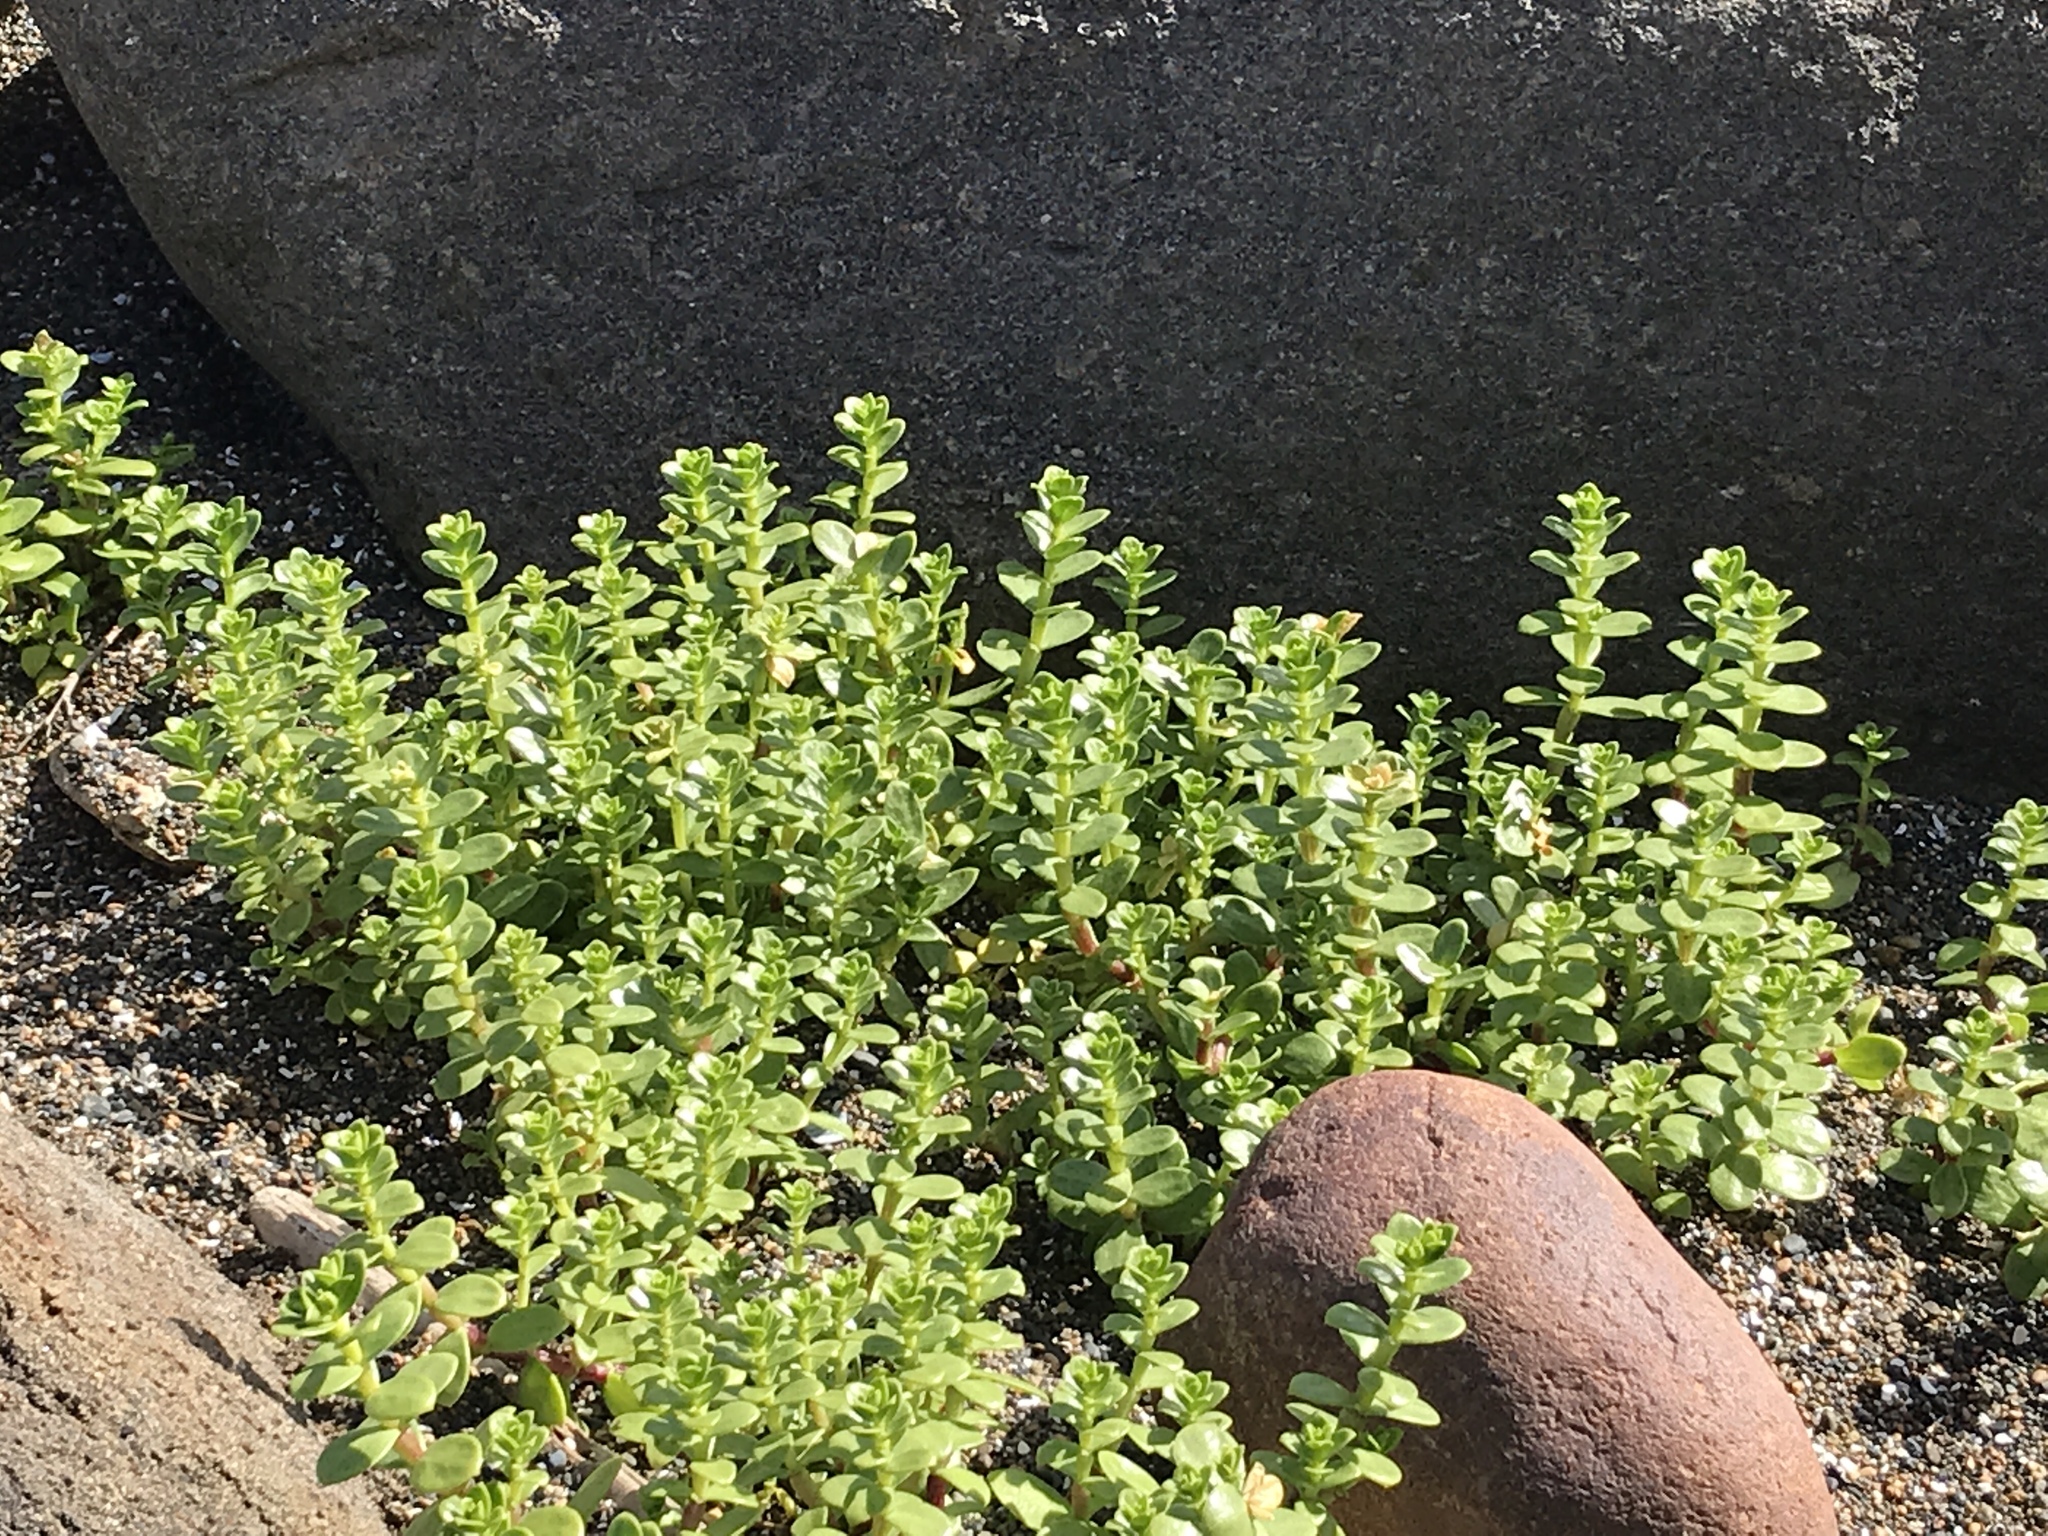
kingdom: Plantae
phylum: Tracheophyta
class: Magnoliopsida
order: Caryophyllales
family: Caryophyllaceae
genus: Honckenya
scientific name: Honckenya peploides
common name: Sea sandwort
